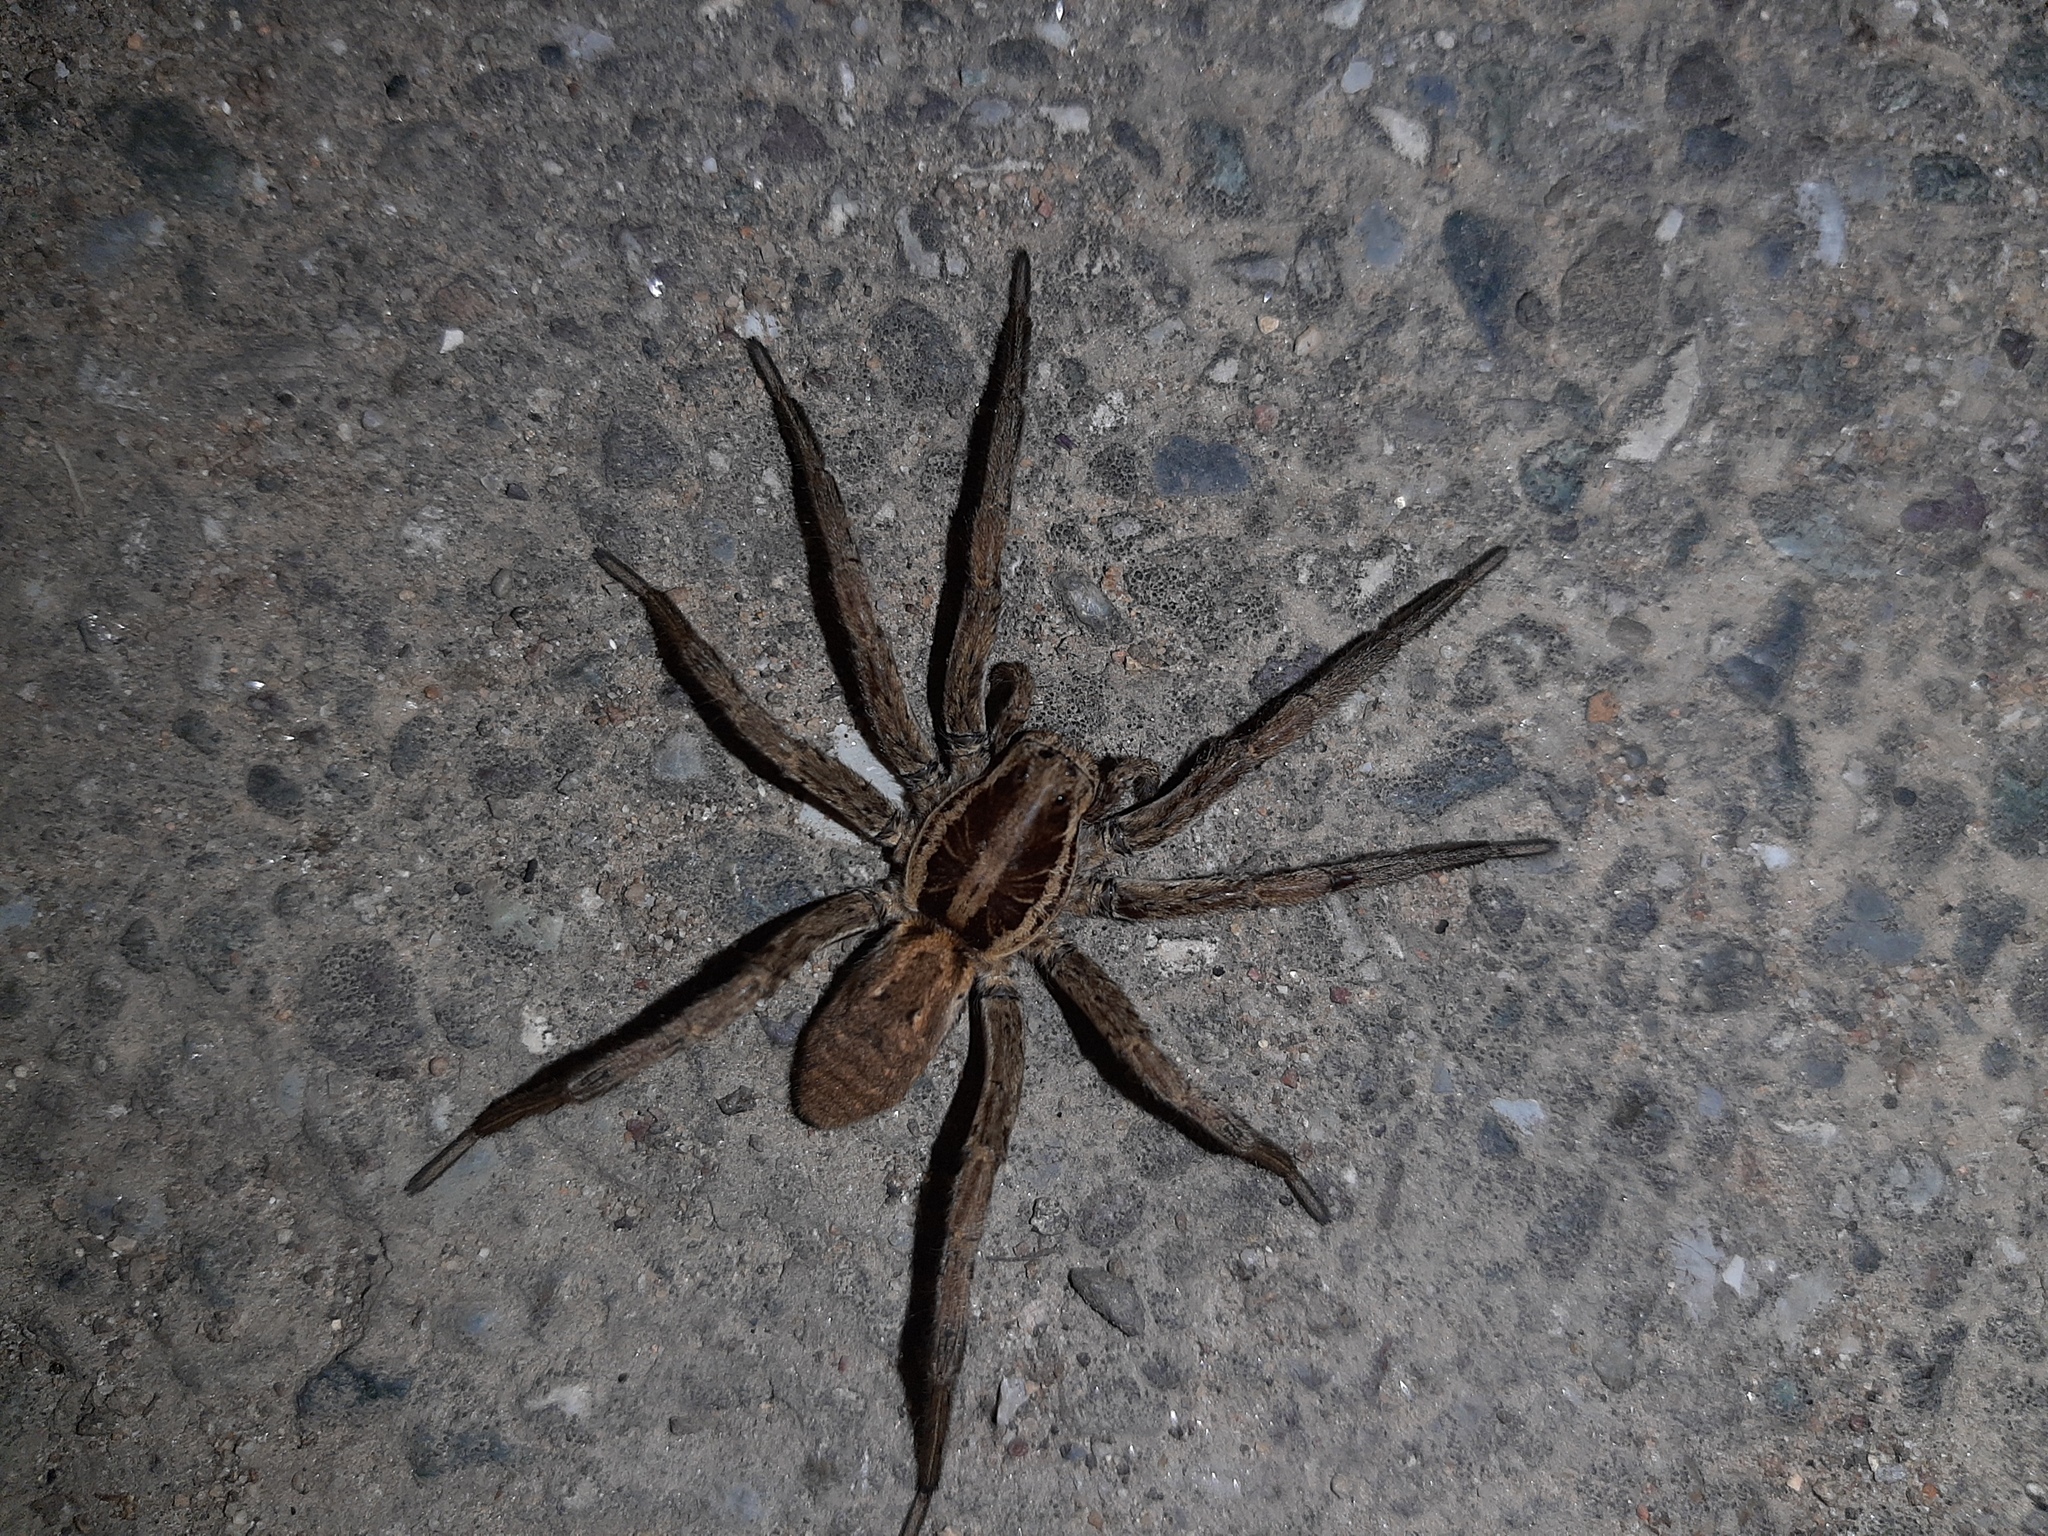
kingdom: Animalia
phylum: Arthropoda
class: Arachnida
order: Araneae
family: Lycosidae
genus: Hogna
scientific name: Hogna radiata
